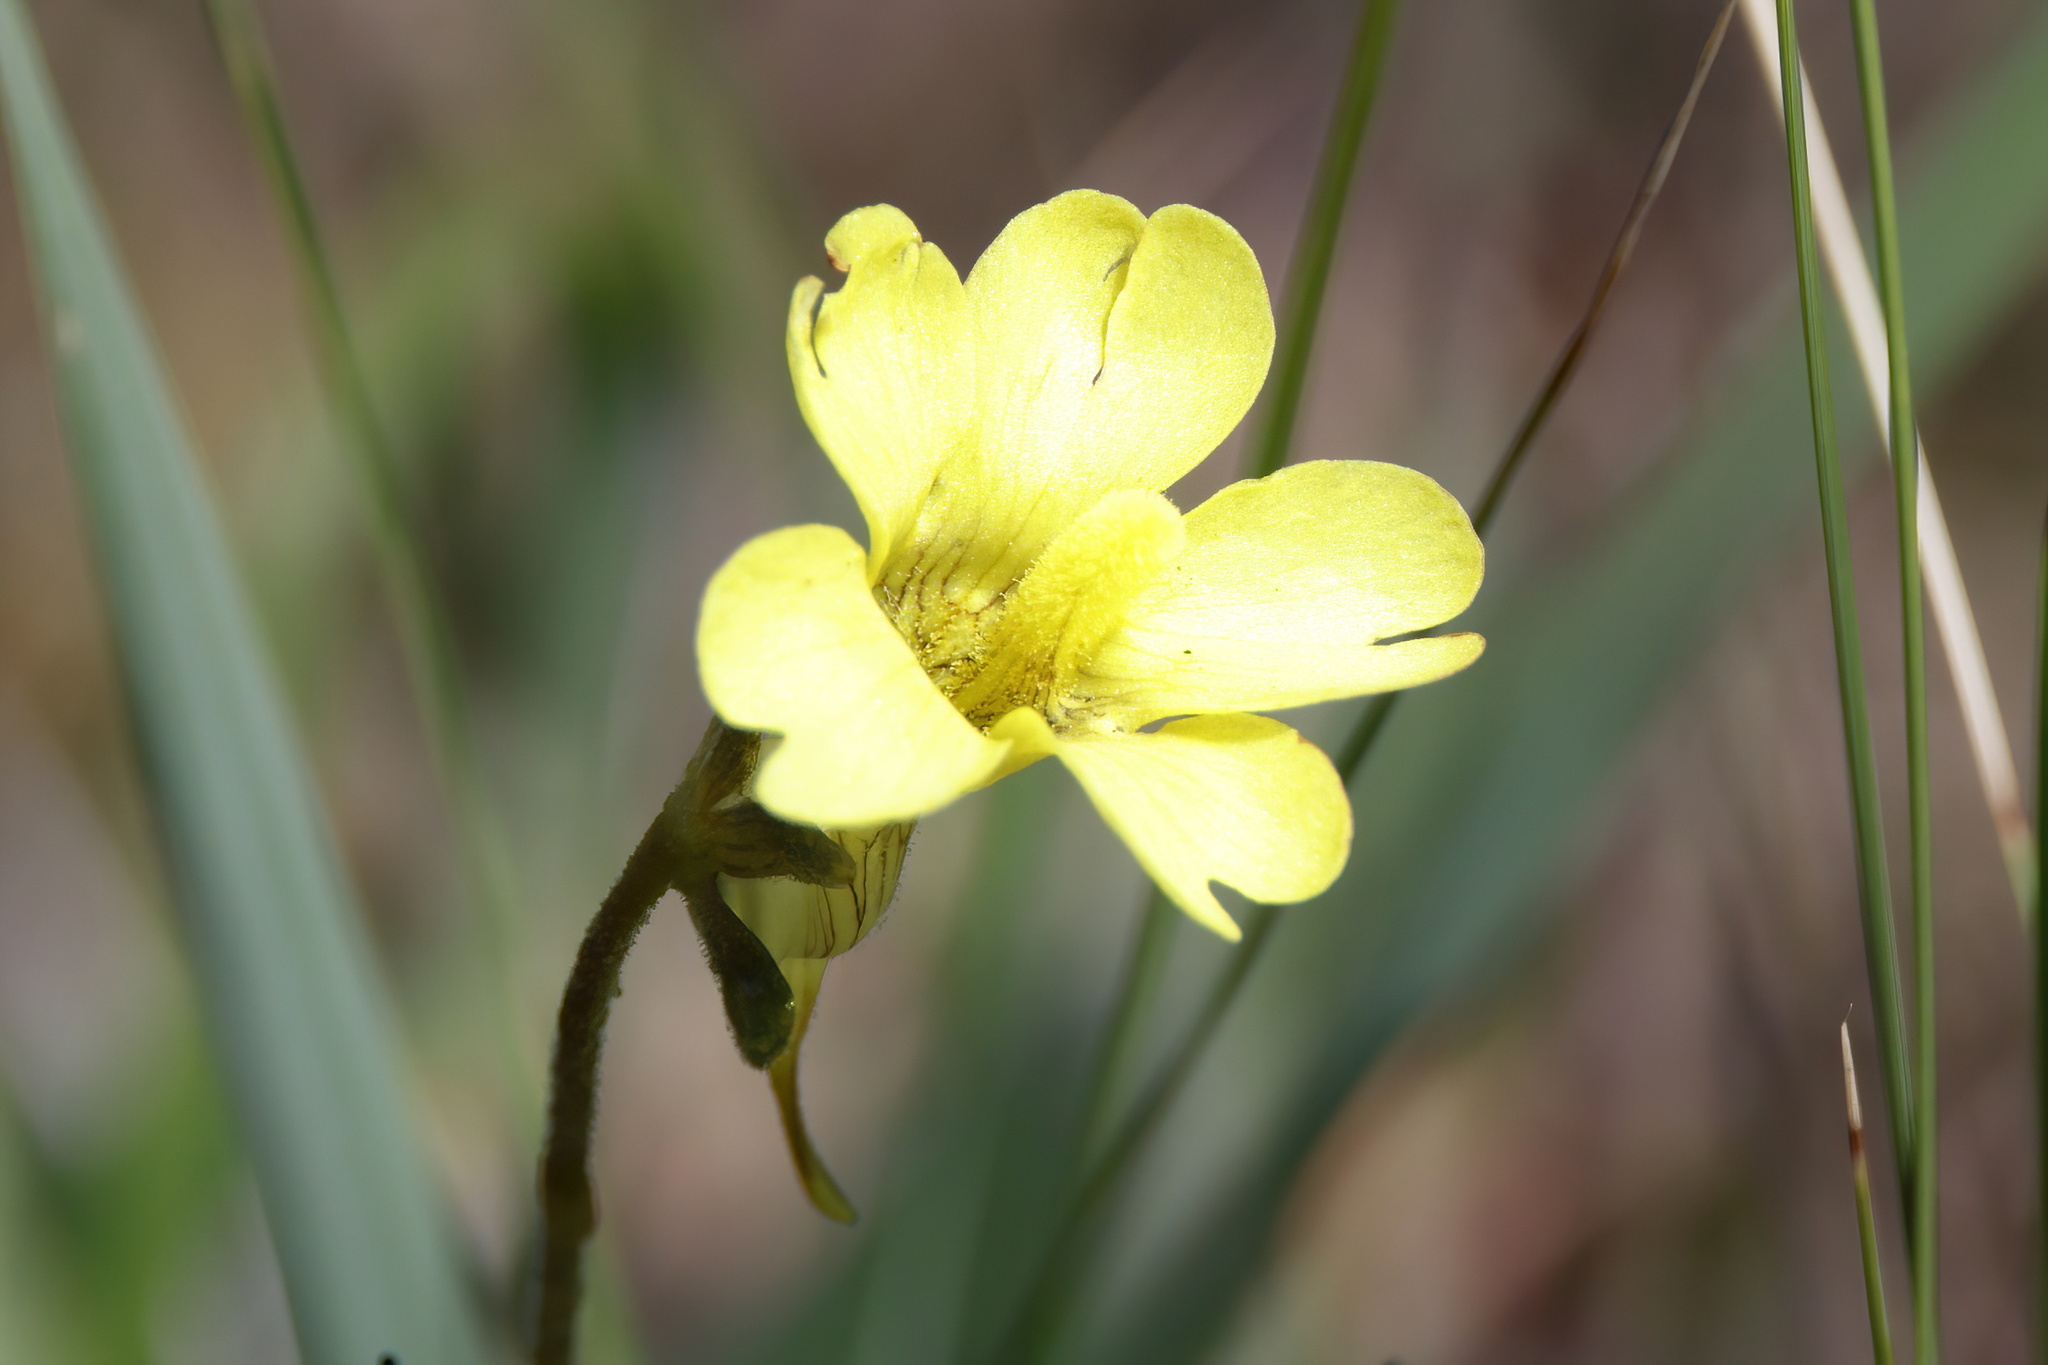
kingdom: Plantae
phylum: Tracheophyta
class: Magnoliopsida
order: Lamiales
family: Lentibulariaceae
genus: Pinguicula
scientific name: Pinguicula lutea
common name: Yellow butterwort
